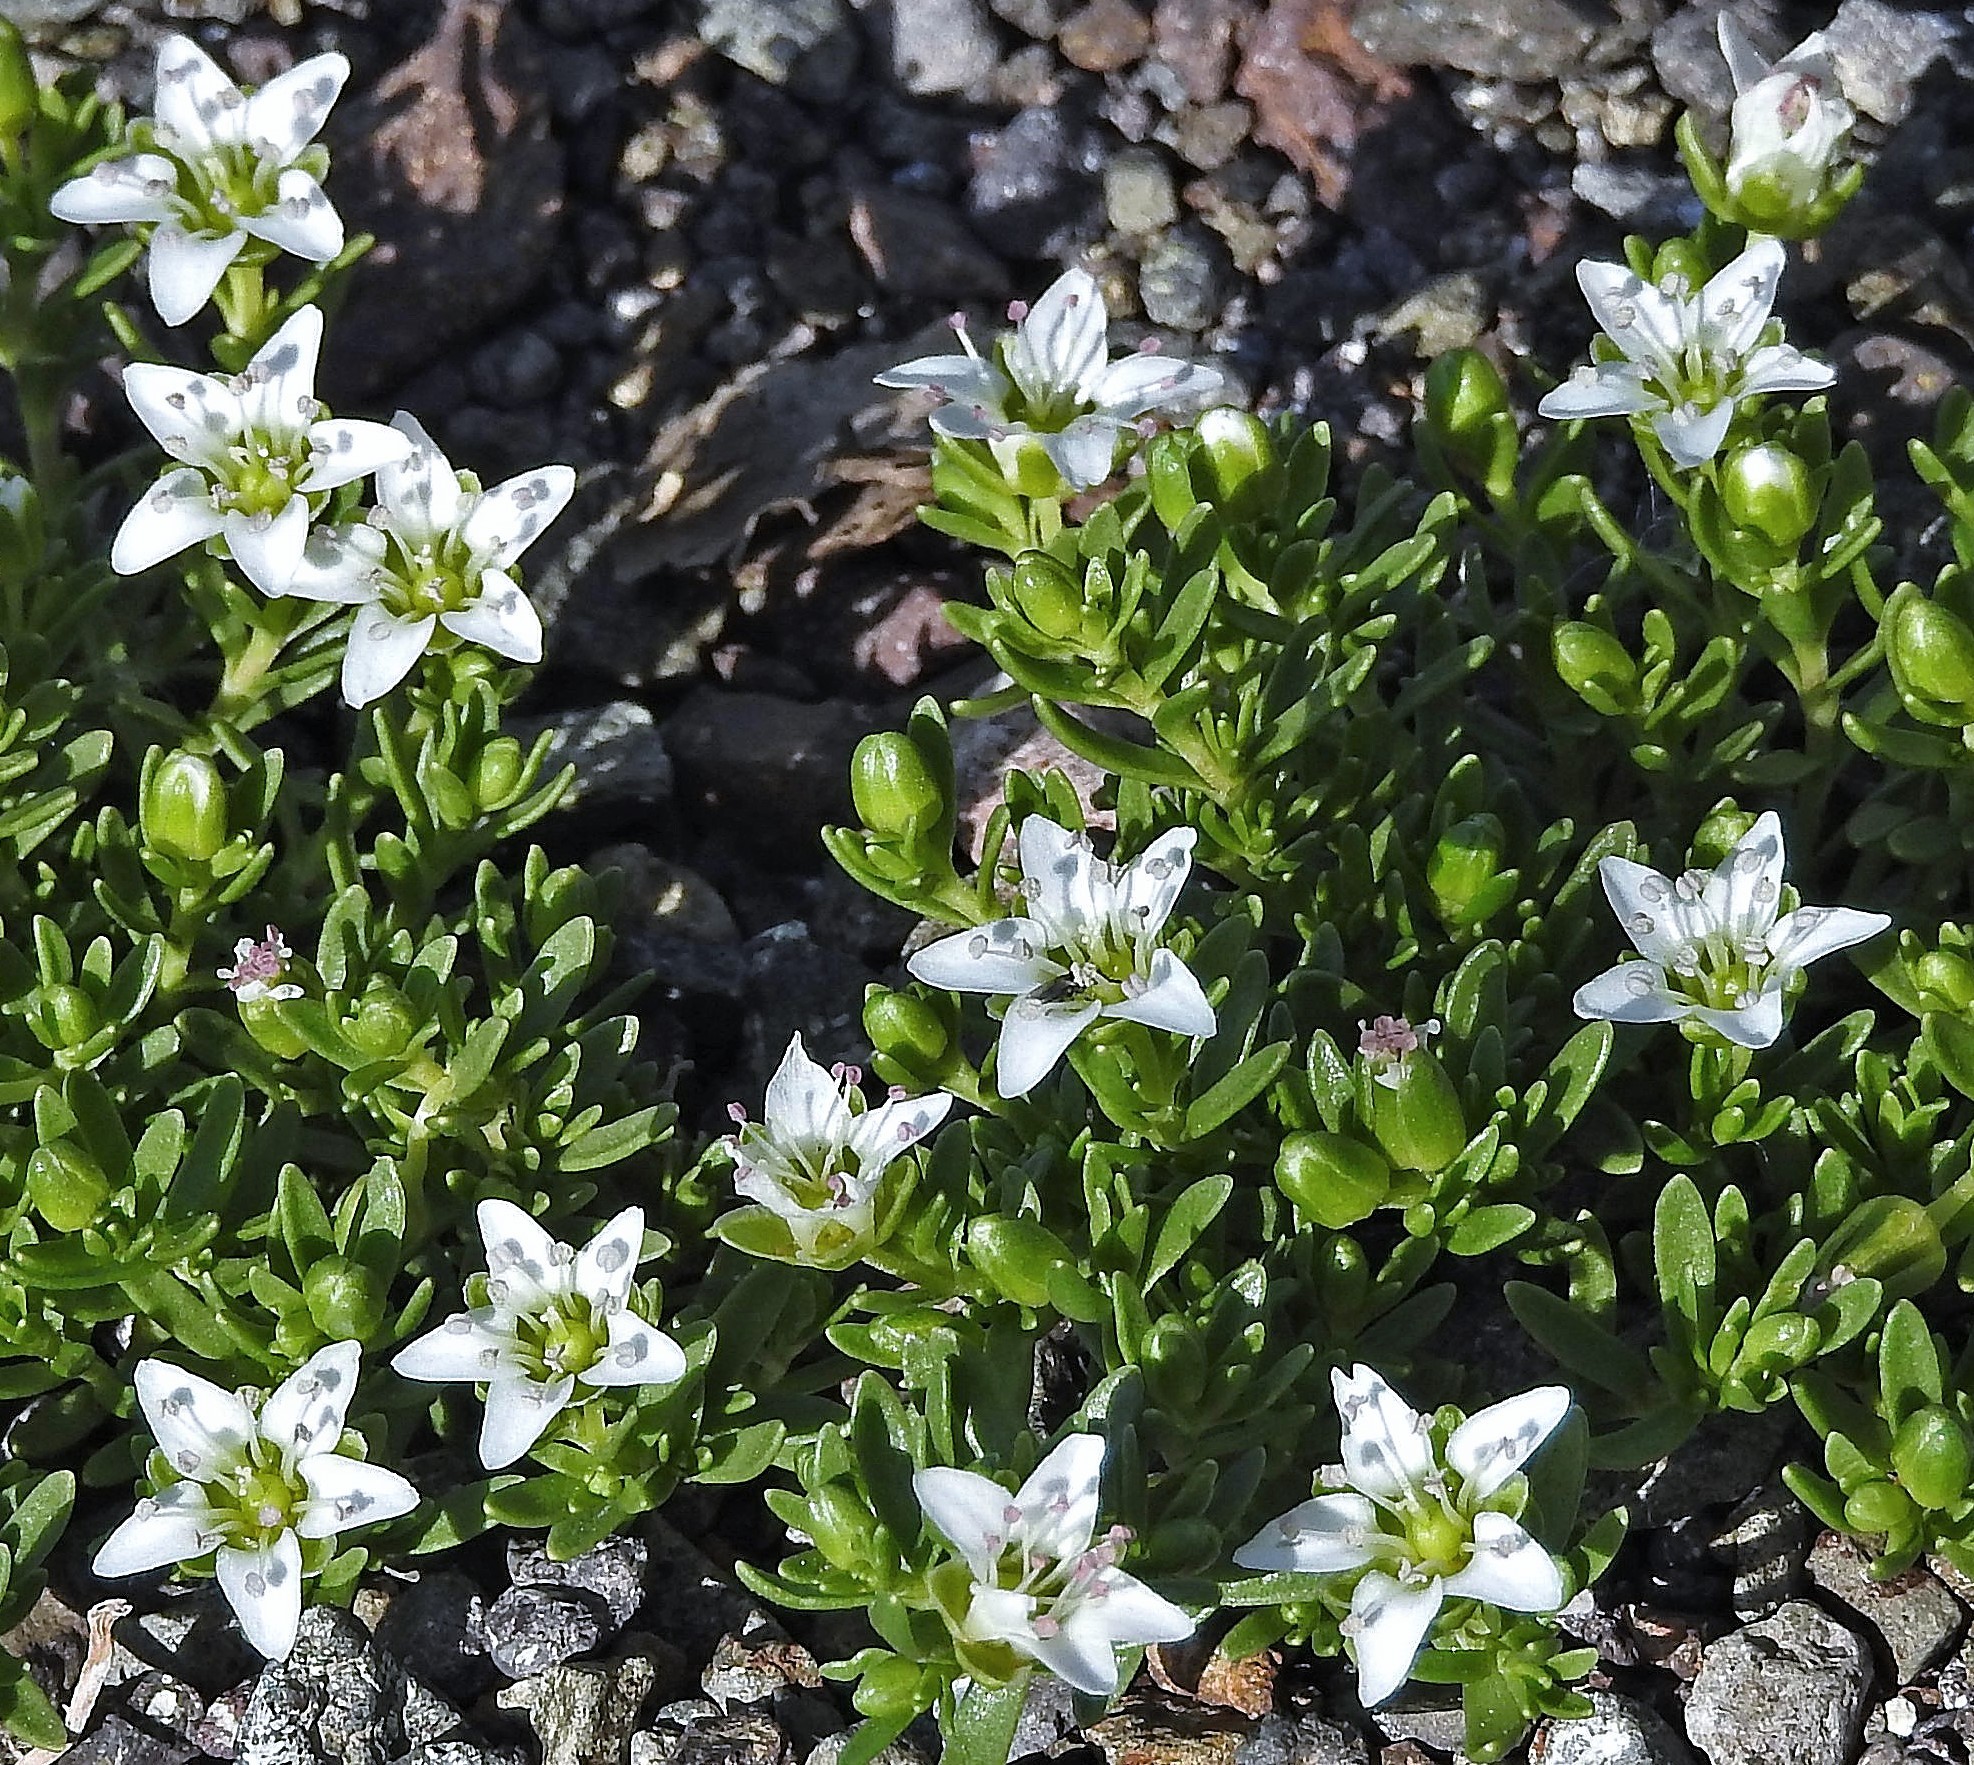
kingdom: Plantae
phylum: Tracheophyta
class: Magnoliopsida
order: Caryophyllales
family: Caryophyllaceae
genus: Arenaria
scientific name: Arenaria serpens
